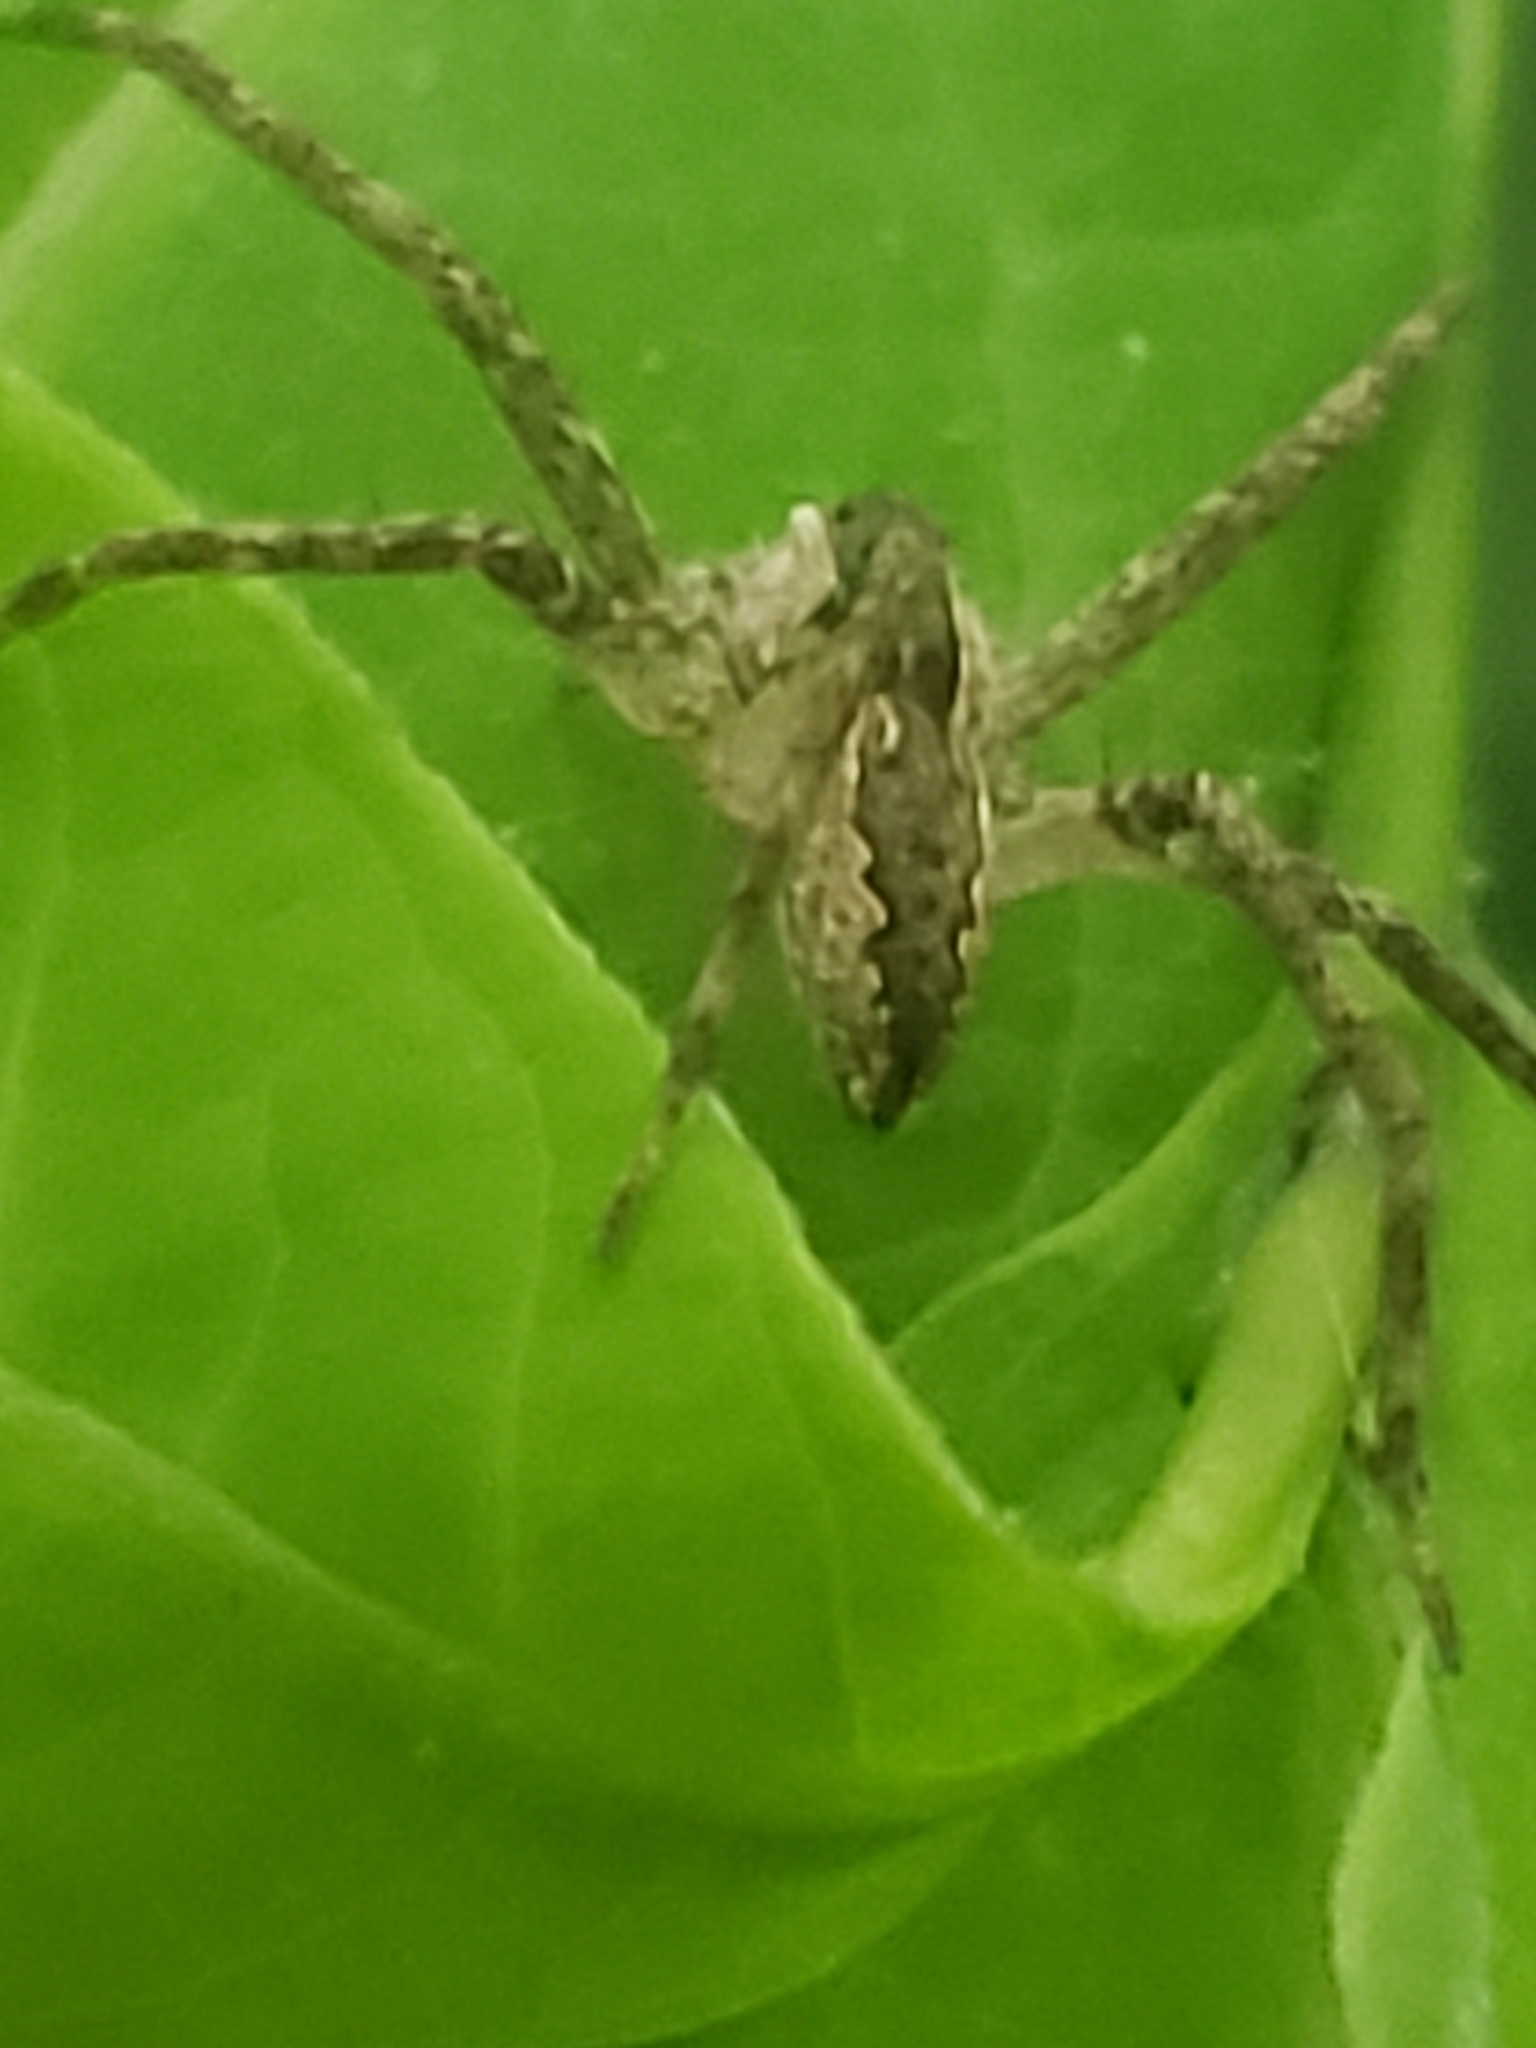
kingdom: Animalia
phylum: Arthropoda
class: Arachnida
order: Araneae
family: Pisauridae
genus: Pisaurina
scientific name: Pisaurina mira
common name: American nursery web spider
